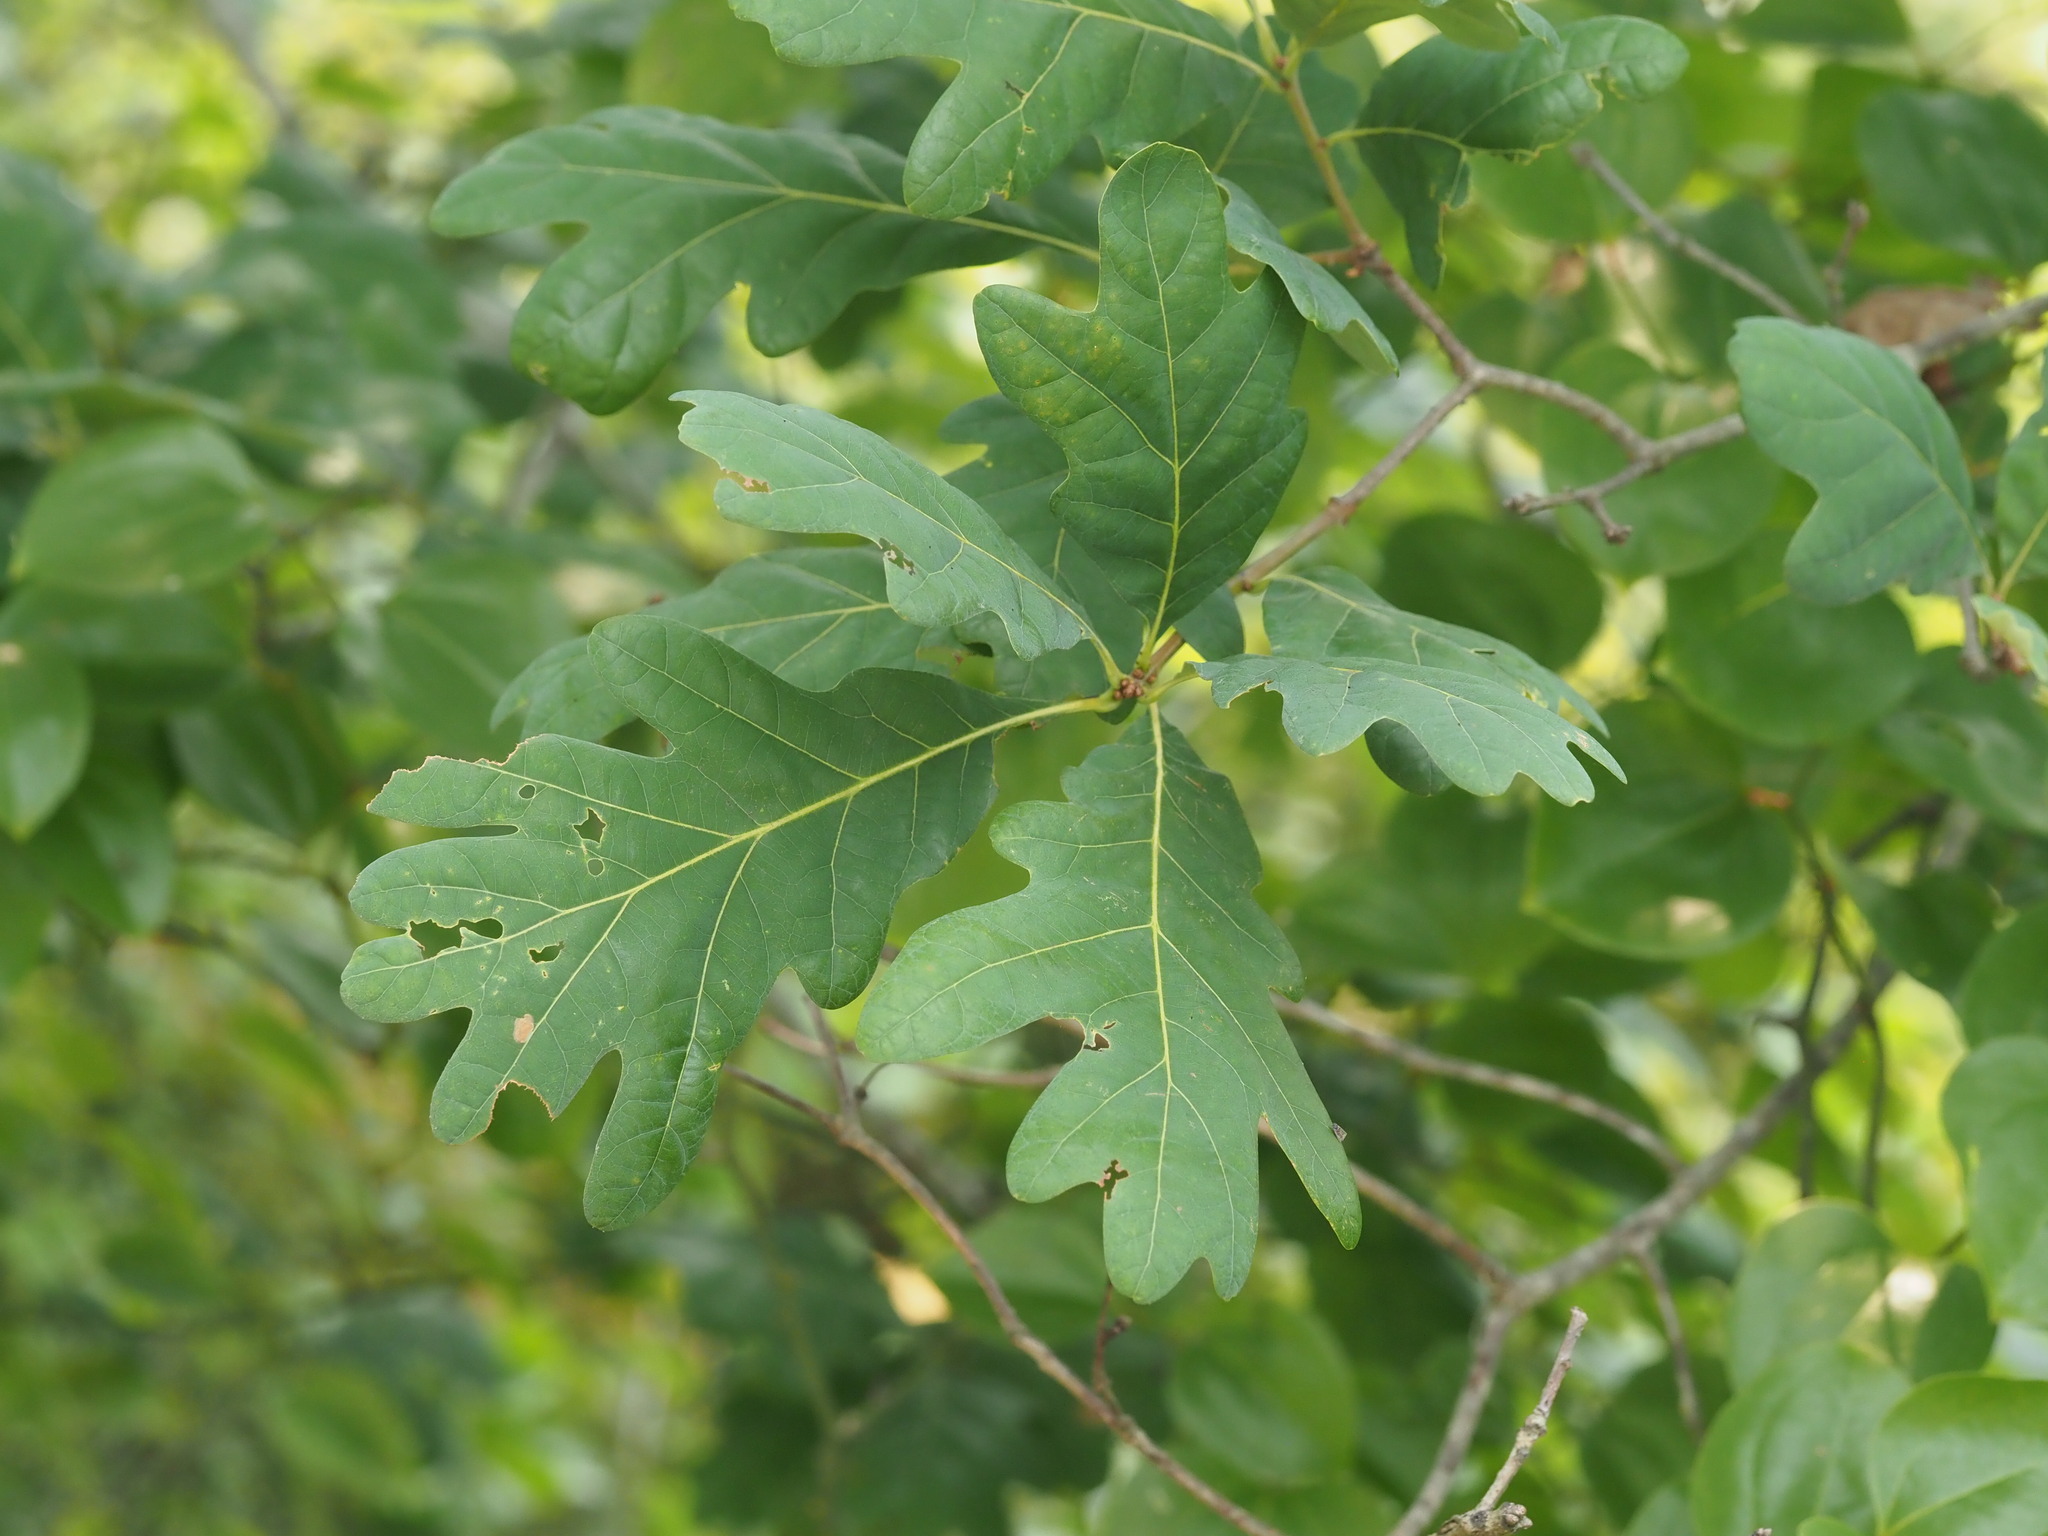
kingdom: Plantae
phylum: Tracheophyta
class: Magnoliopsida
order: Fagales
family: Fagaceae
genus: Quercus
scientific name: Quercus alba
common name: White oak
